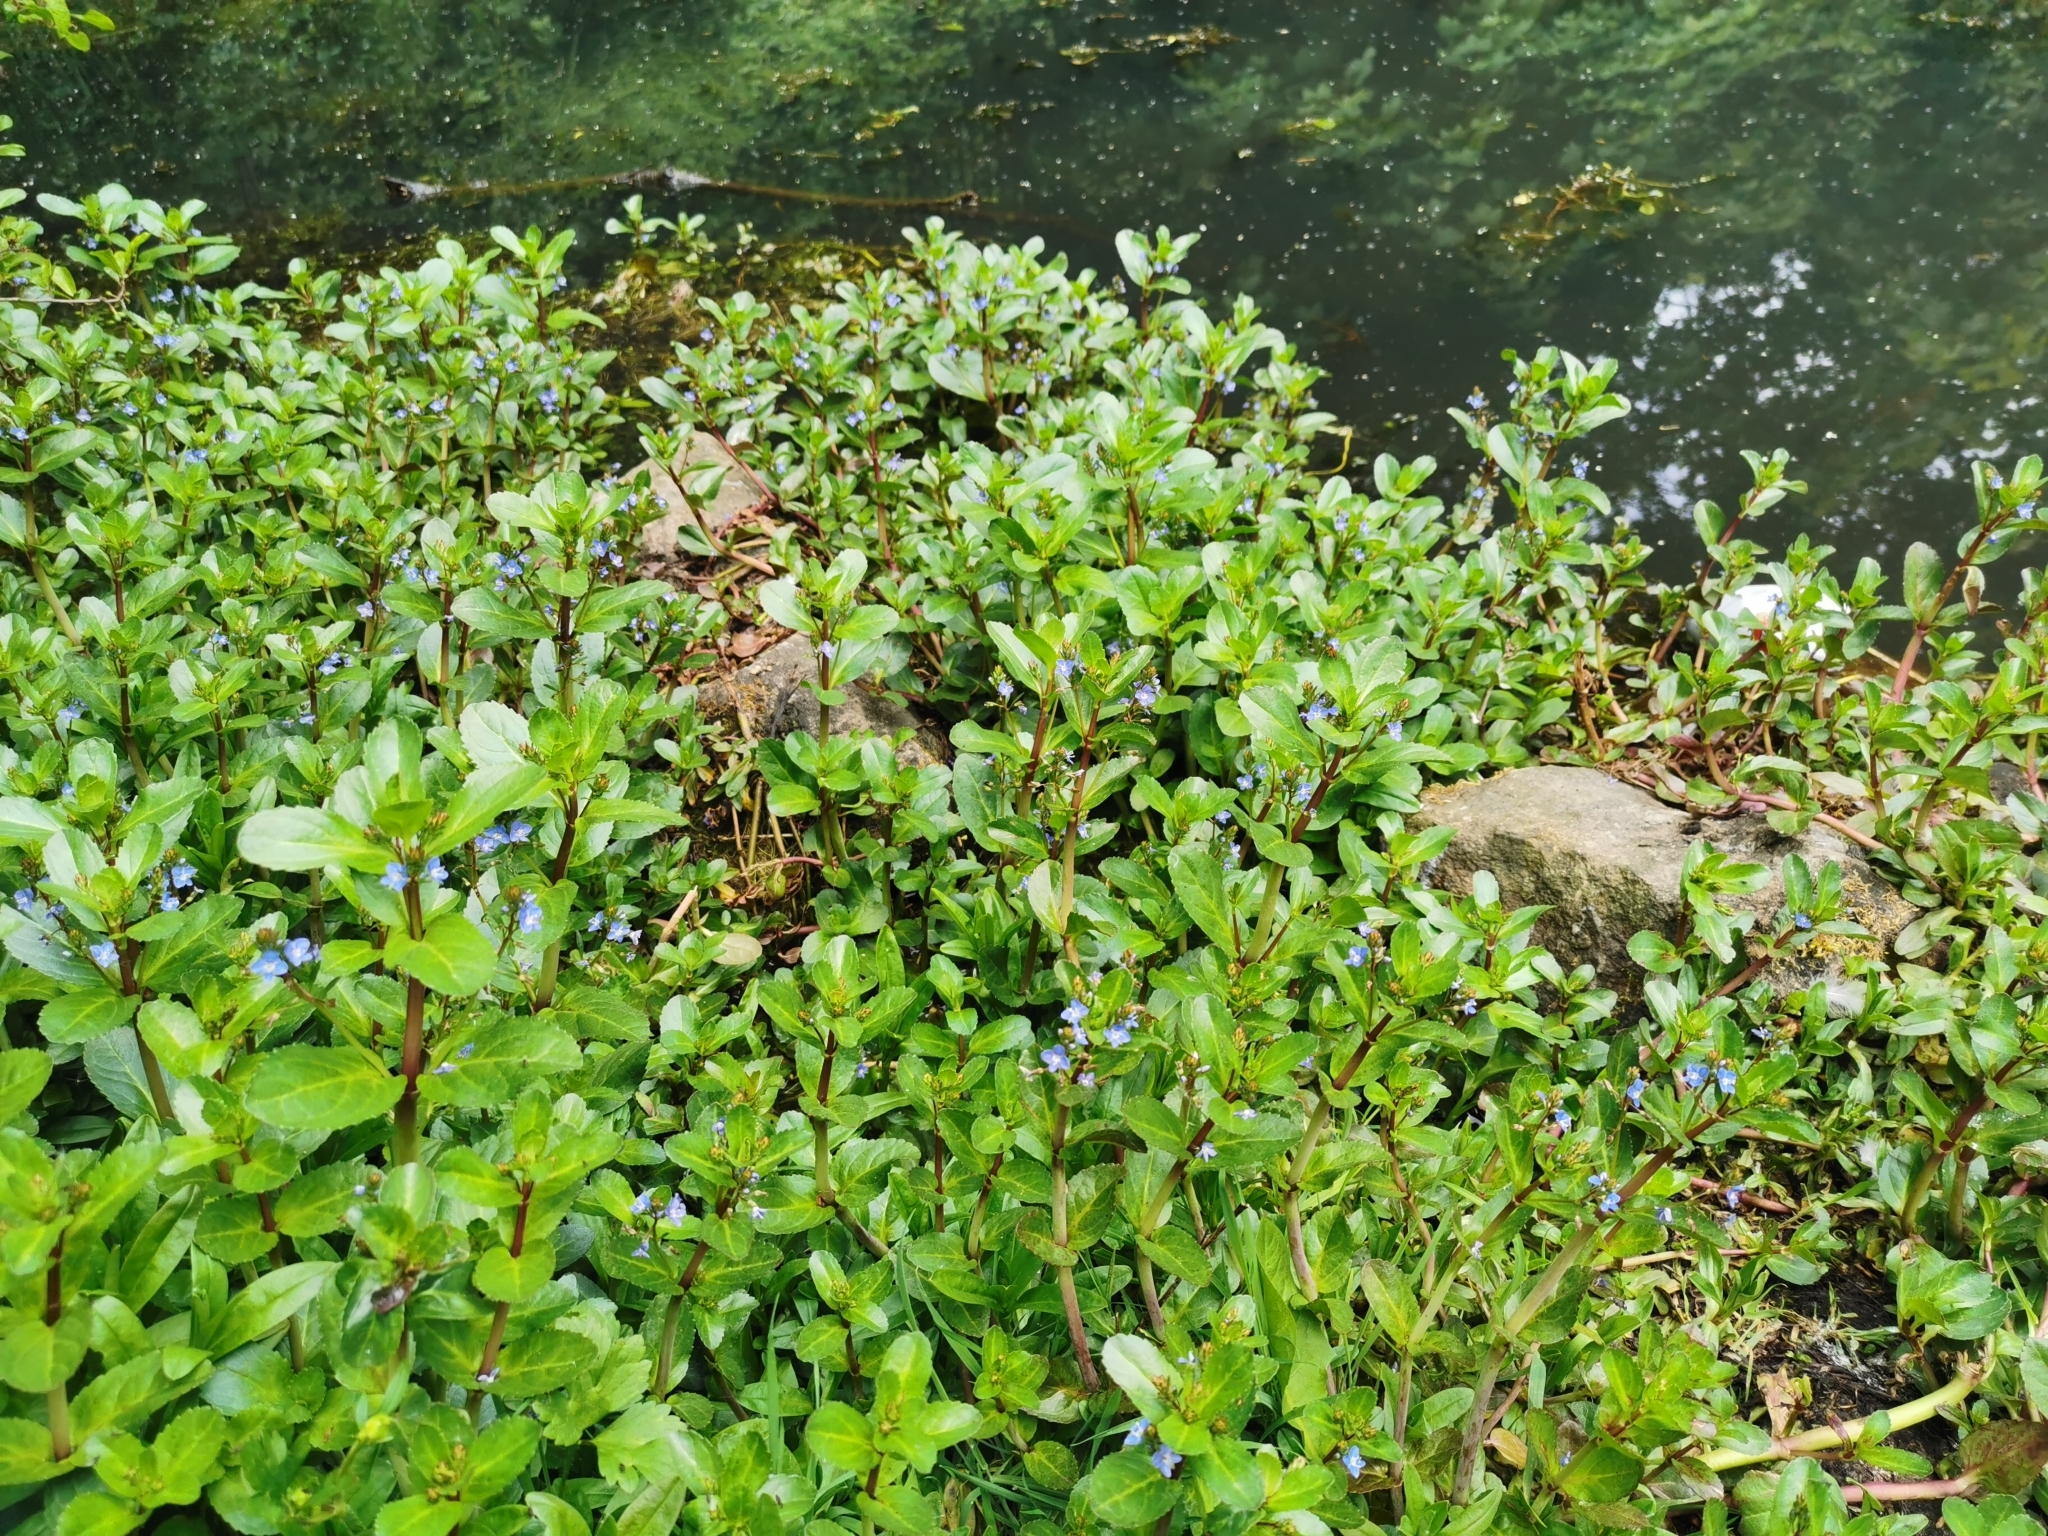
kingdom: Plantae
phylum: Tracheophyta
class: Magnoliopsida
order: Lamiales
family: Plantaginaceae
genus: Veronica
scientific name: Veronica beccabunga
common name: Brooklime
